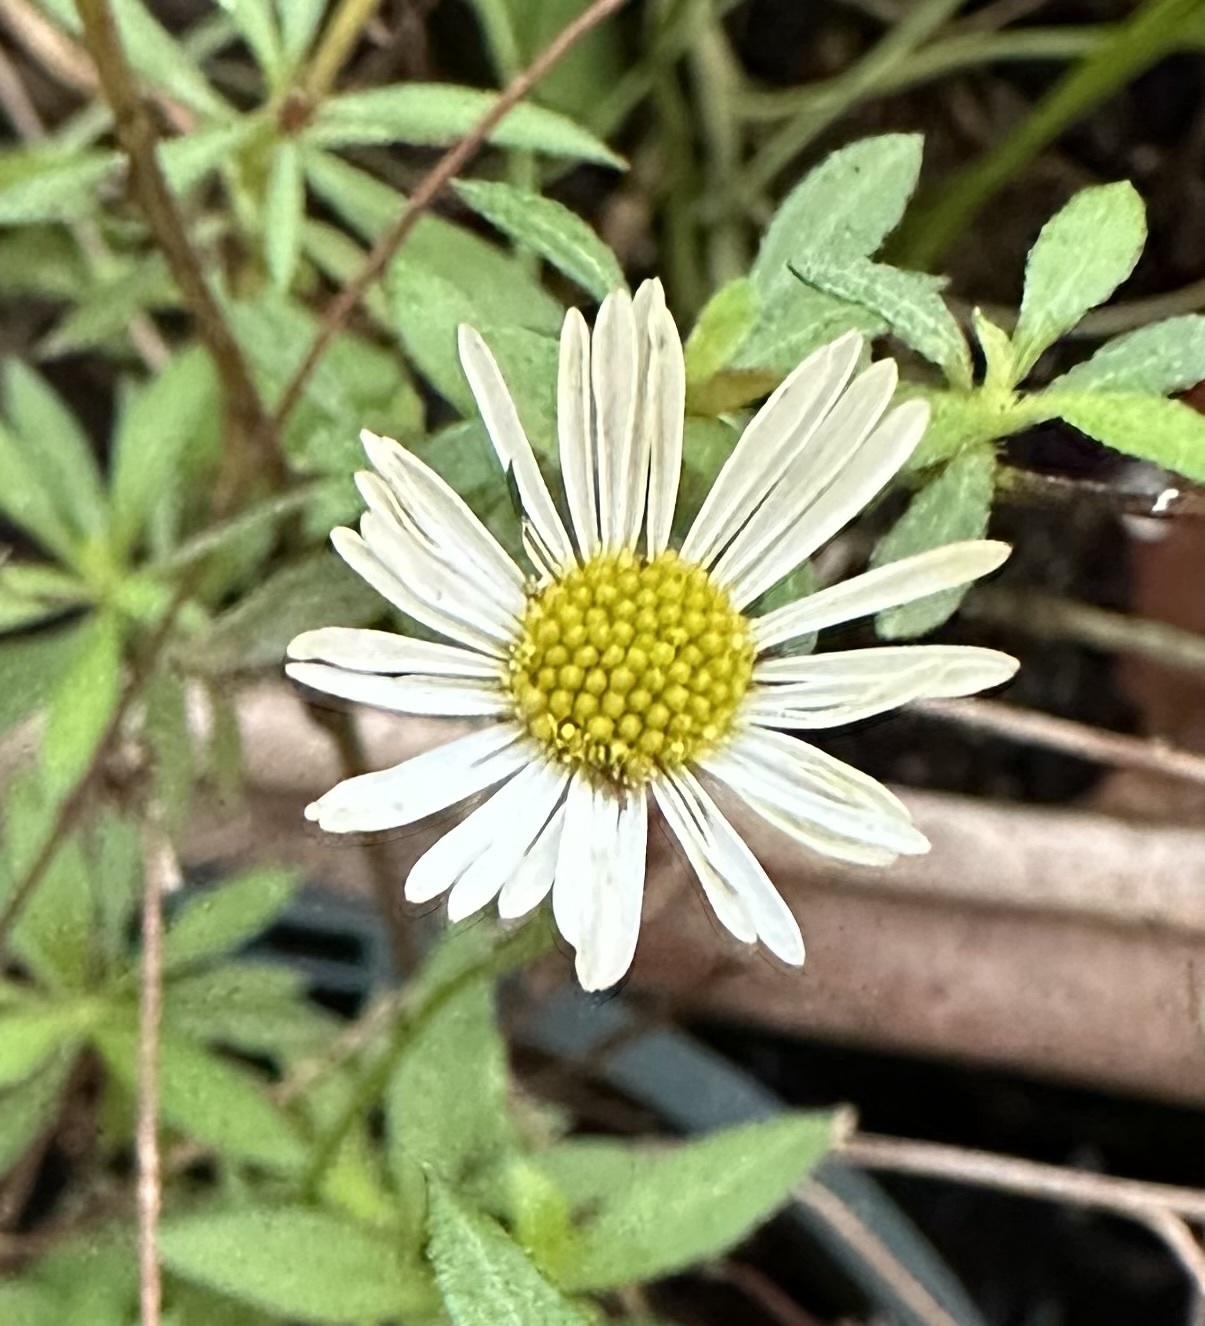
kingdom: Plantae
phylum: Tracheophyta
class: Magnoliopsida
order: Asterales
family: Asteraceae
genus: Erigeron
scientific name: Erigeron karvinskianus
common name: Mexican fleabane
